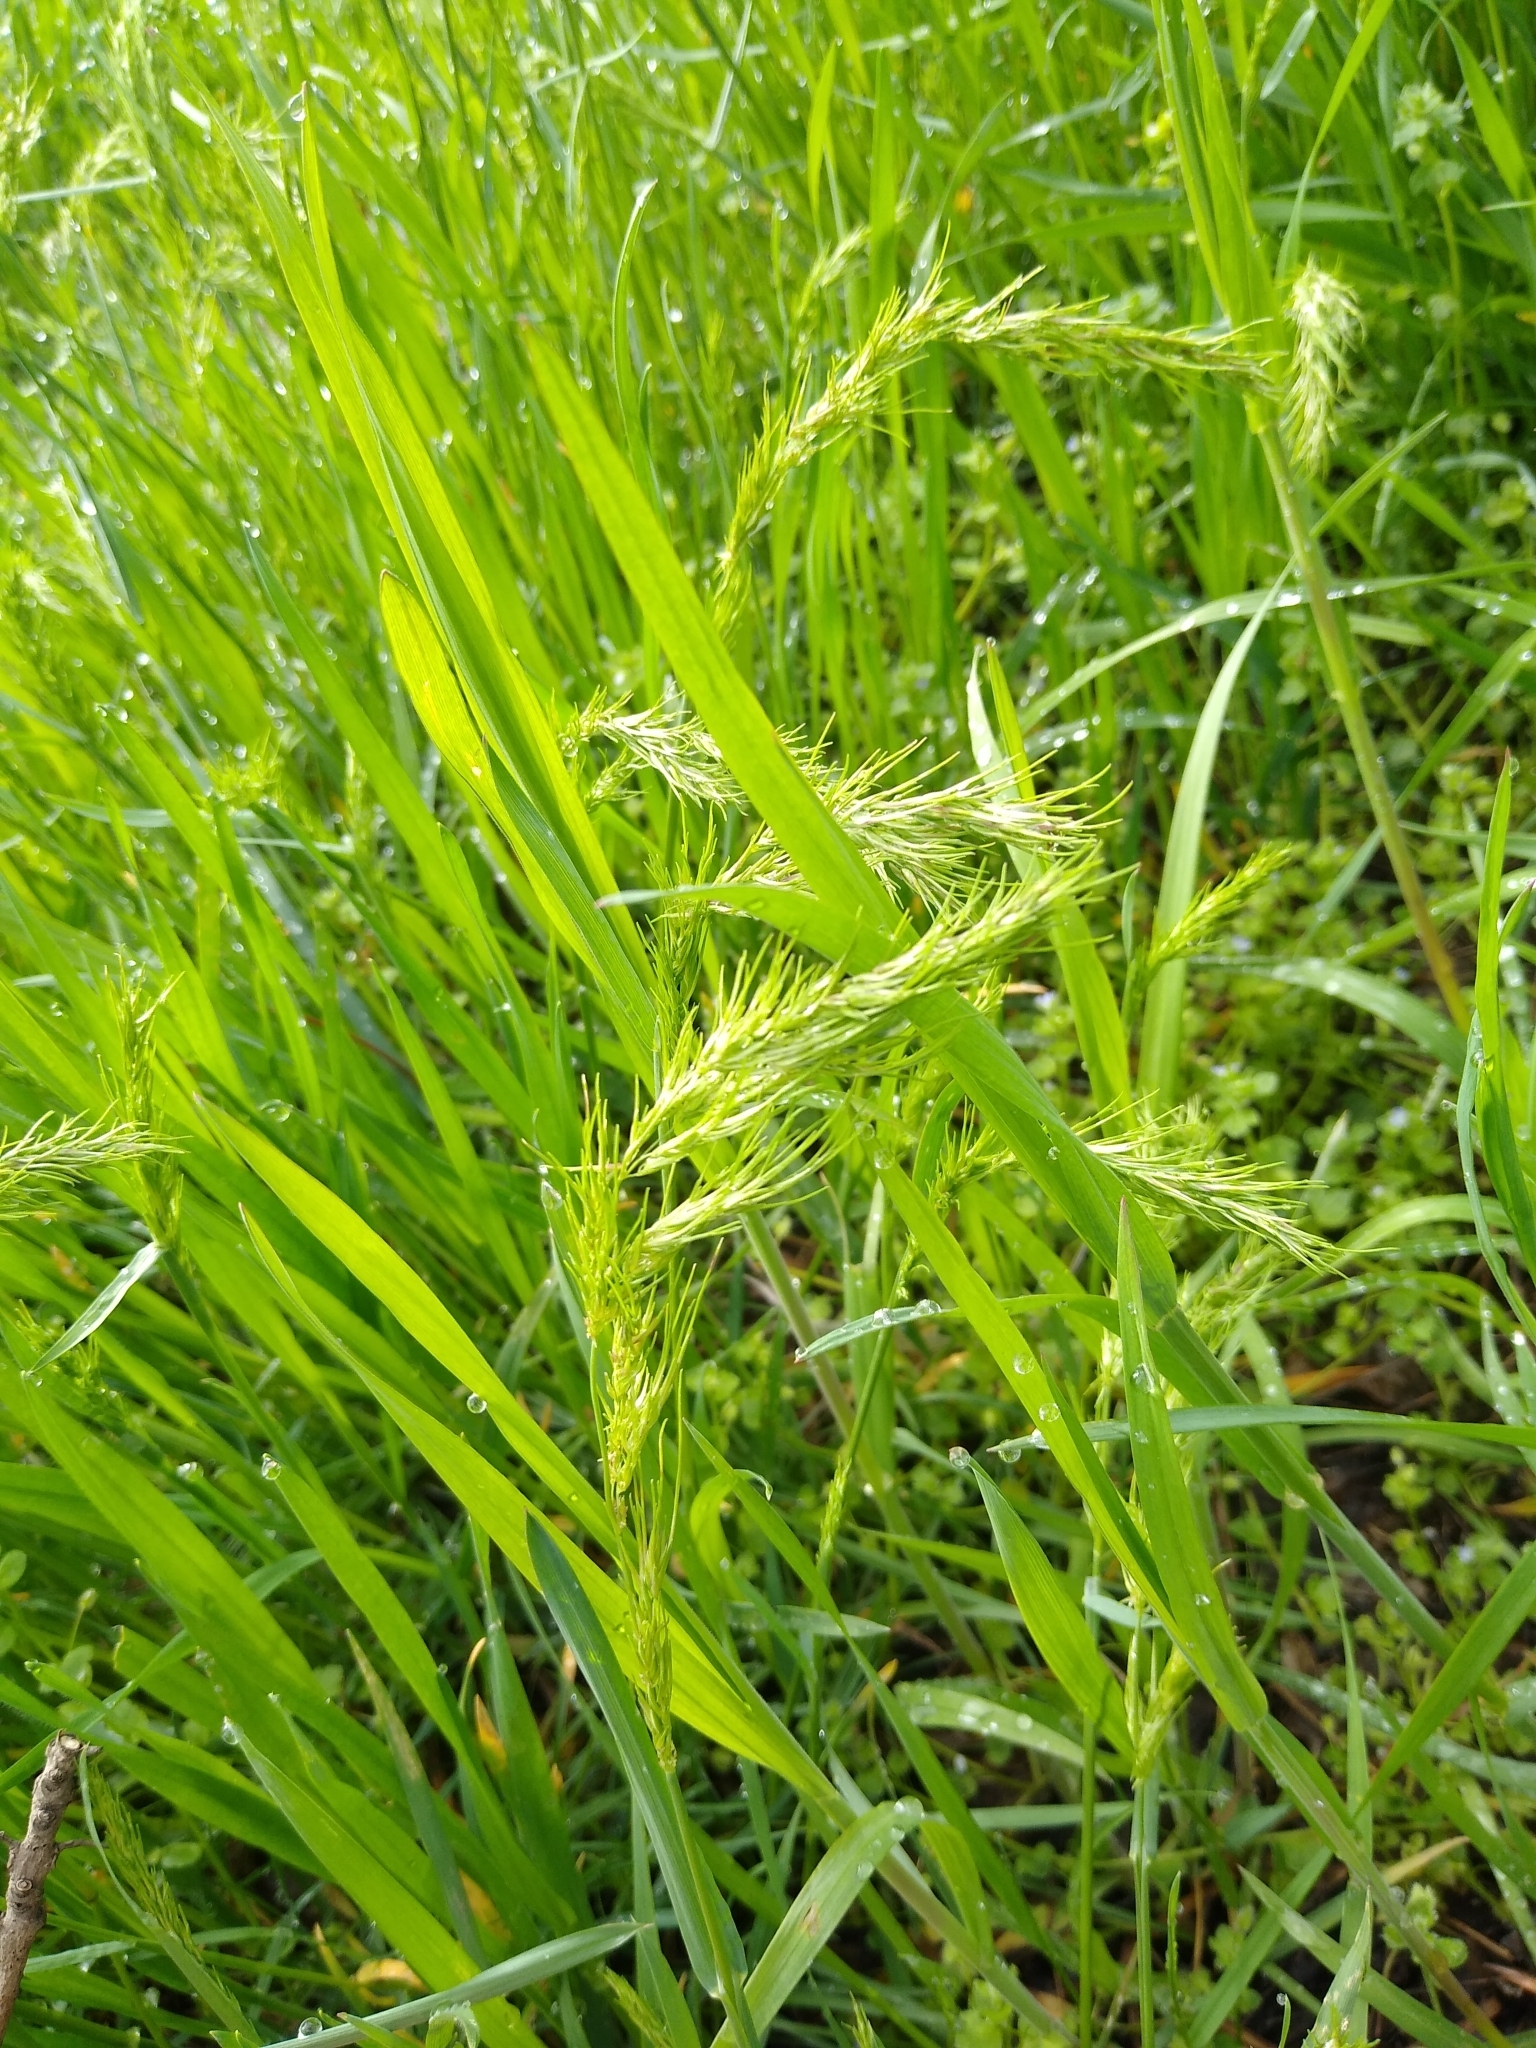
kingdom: Plantae
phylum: Tracheophyta
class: Liliopsida
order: Poales
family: Poaceae
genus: Poa
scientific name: Poa bulbosa
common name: Bulbous bluegrass
